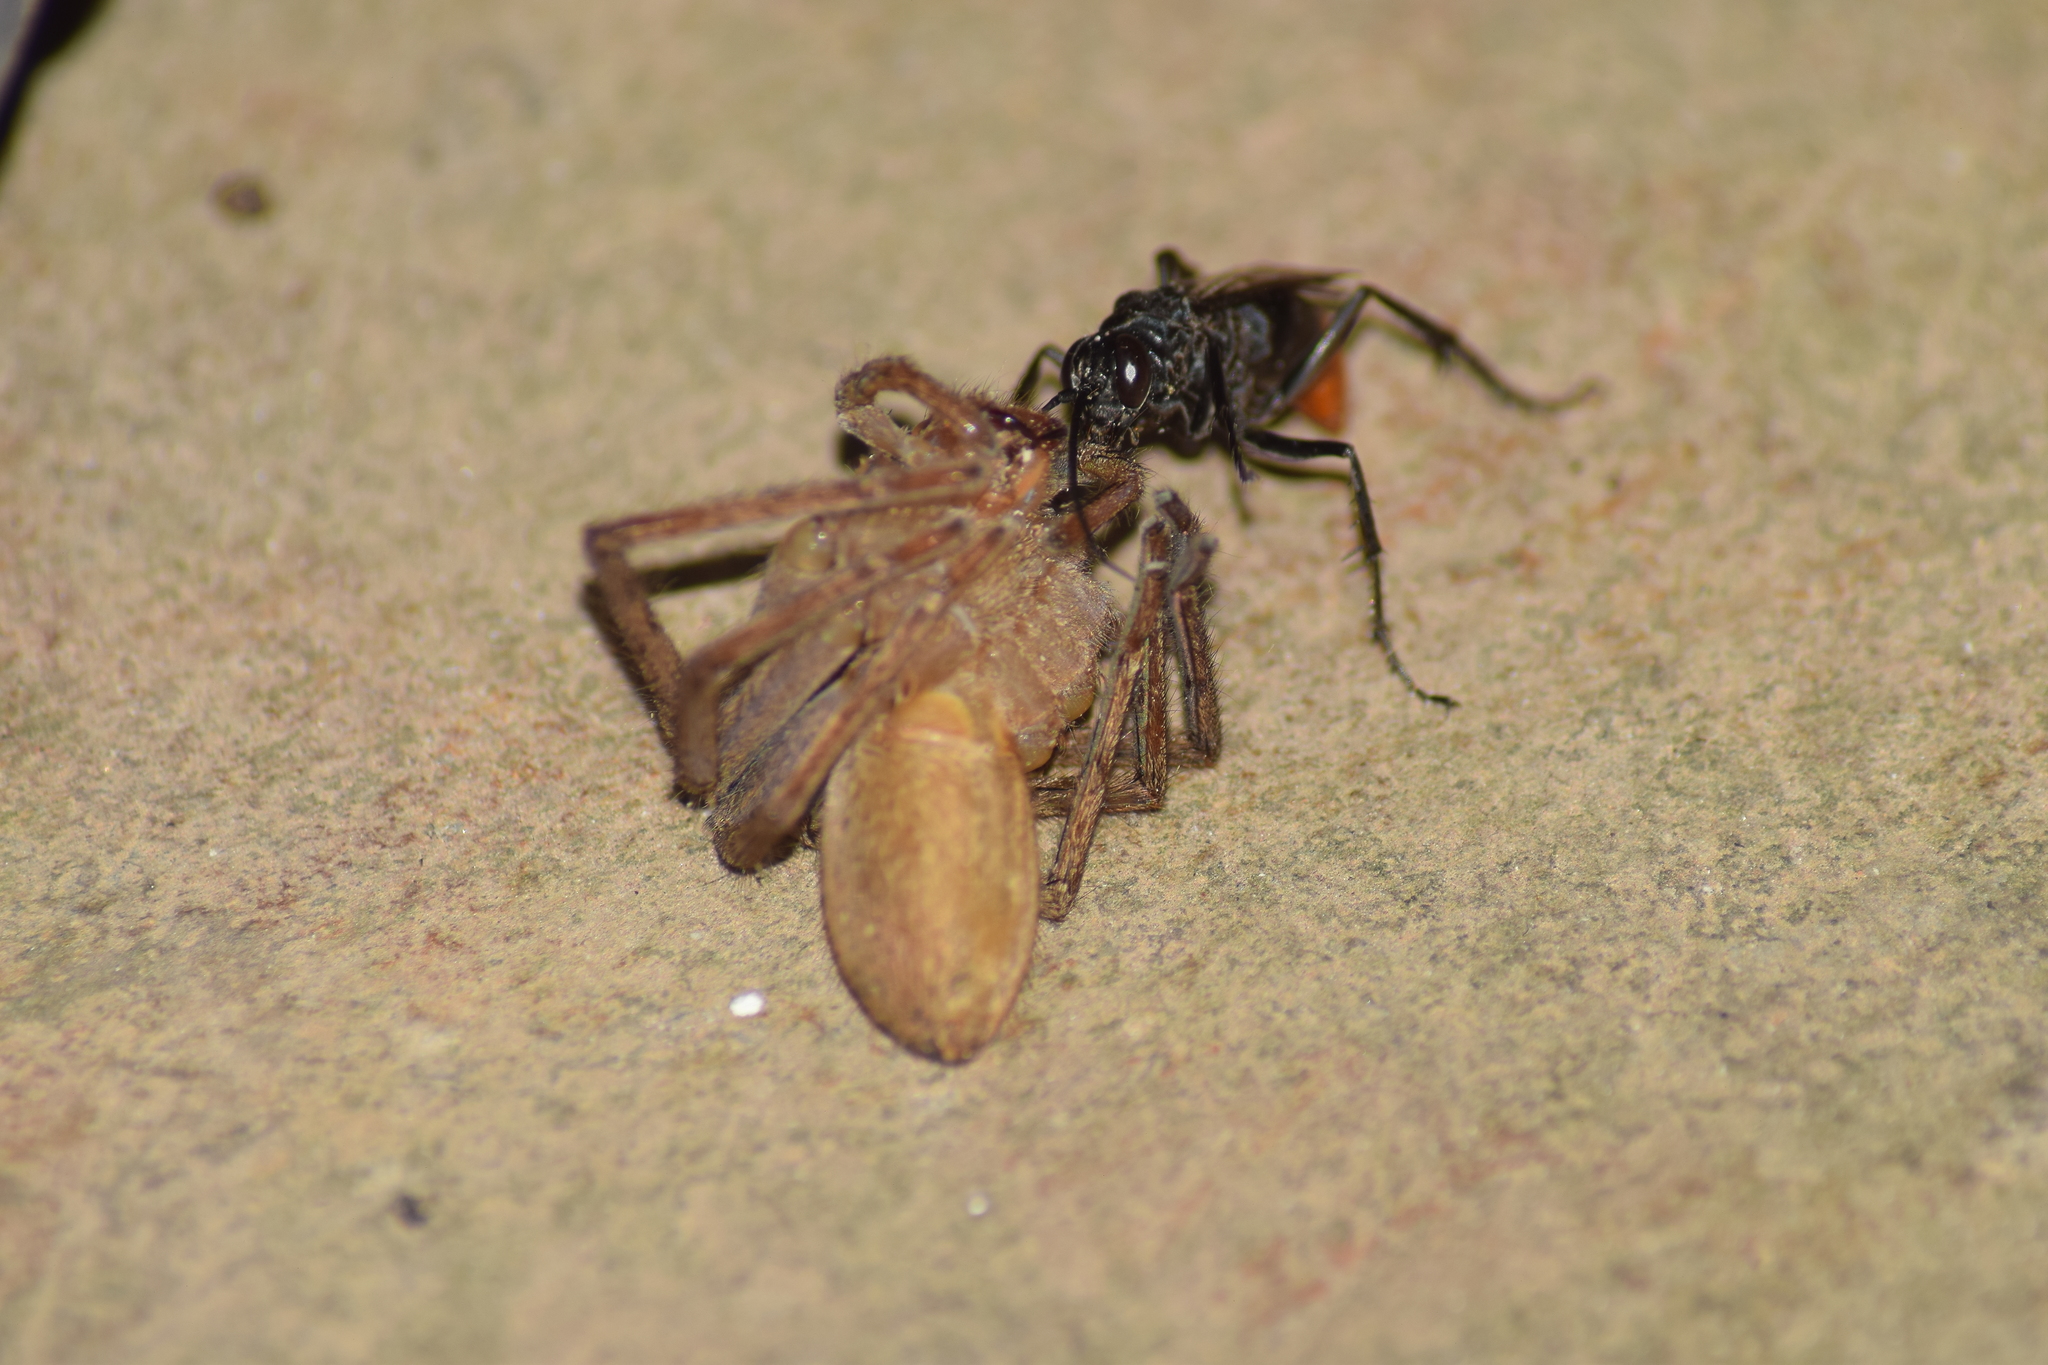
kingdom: Animalia
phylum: Arthropoda
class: Insecta
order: Hymenoptera
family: Pompilidae
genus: Tachypompilus
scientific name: Tachypompilus analis
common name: Spider wasp
